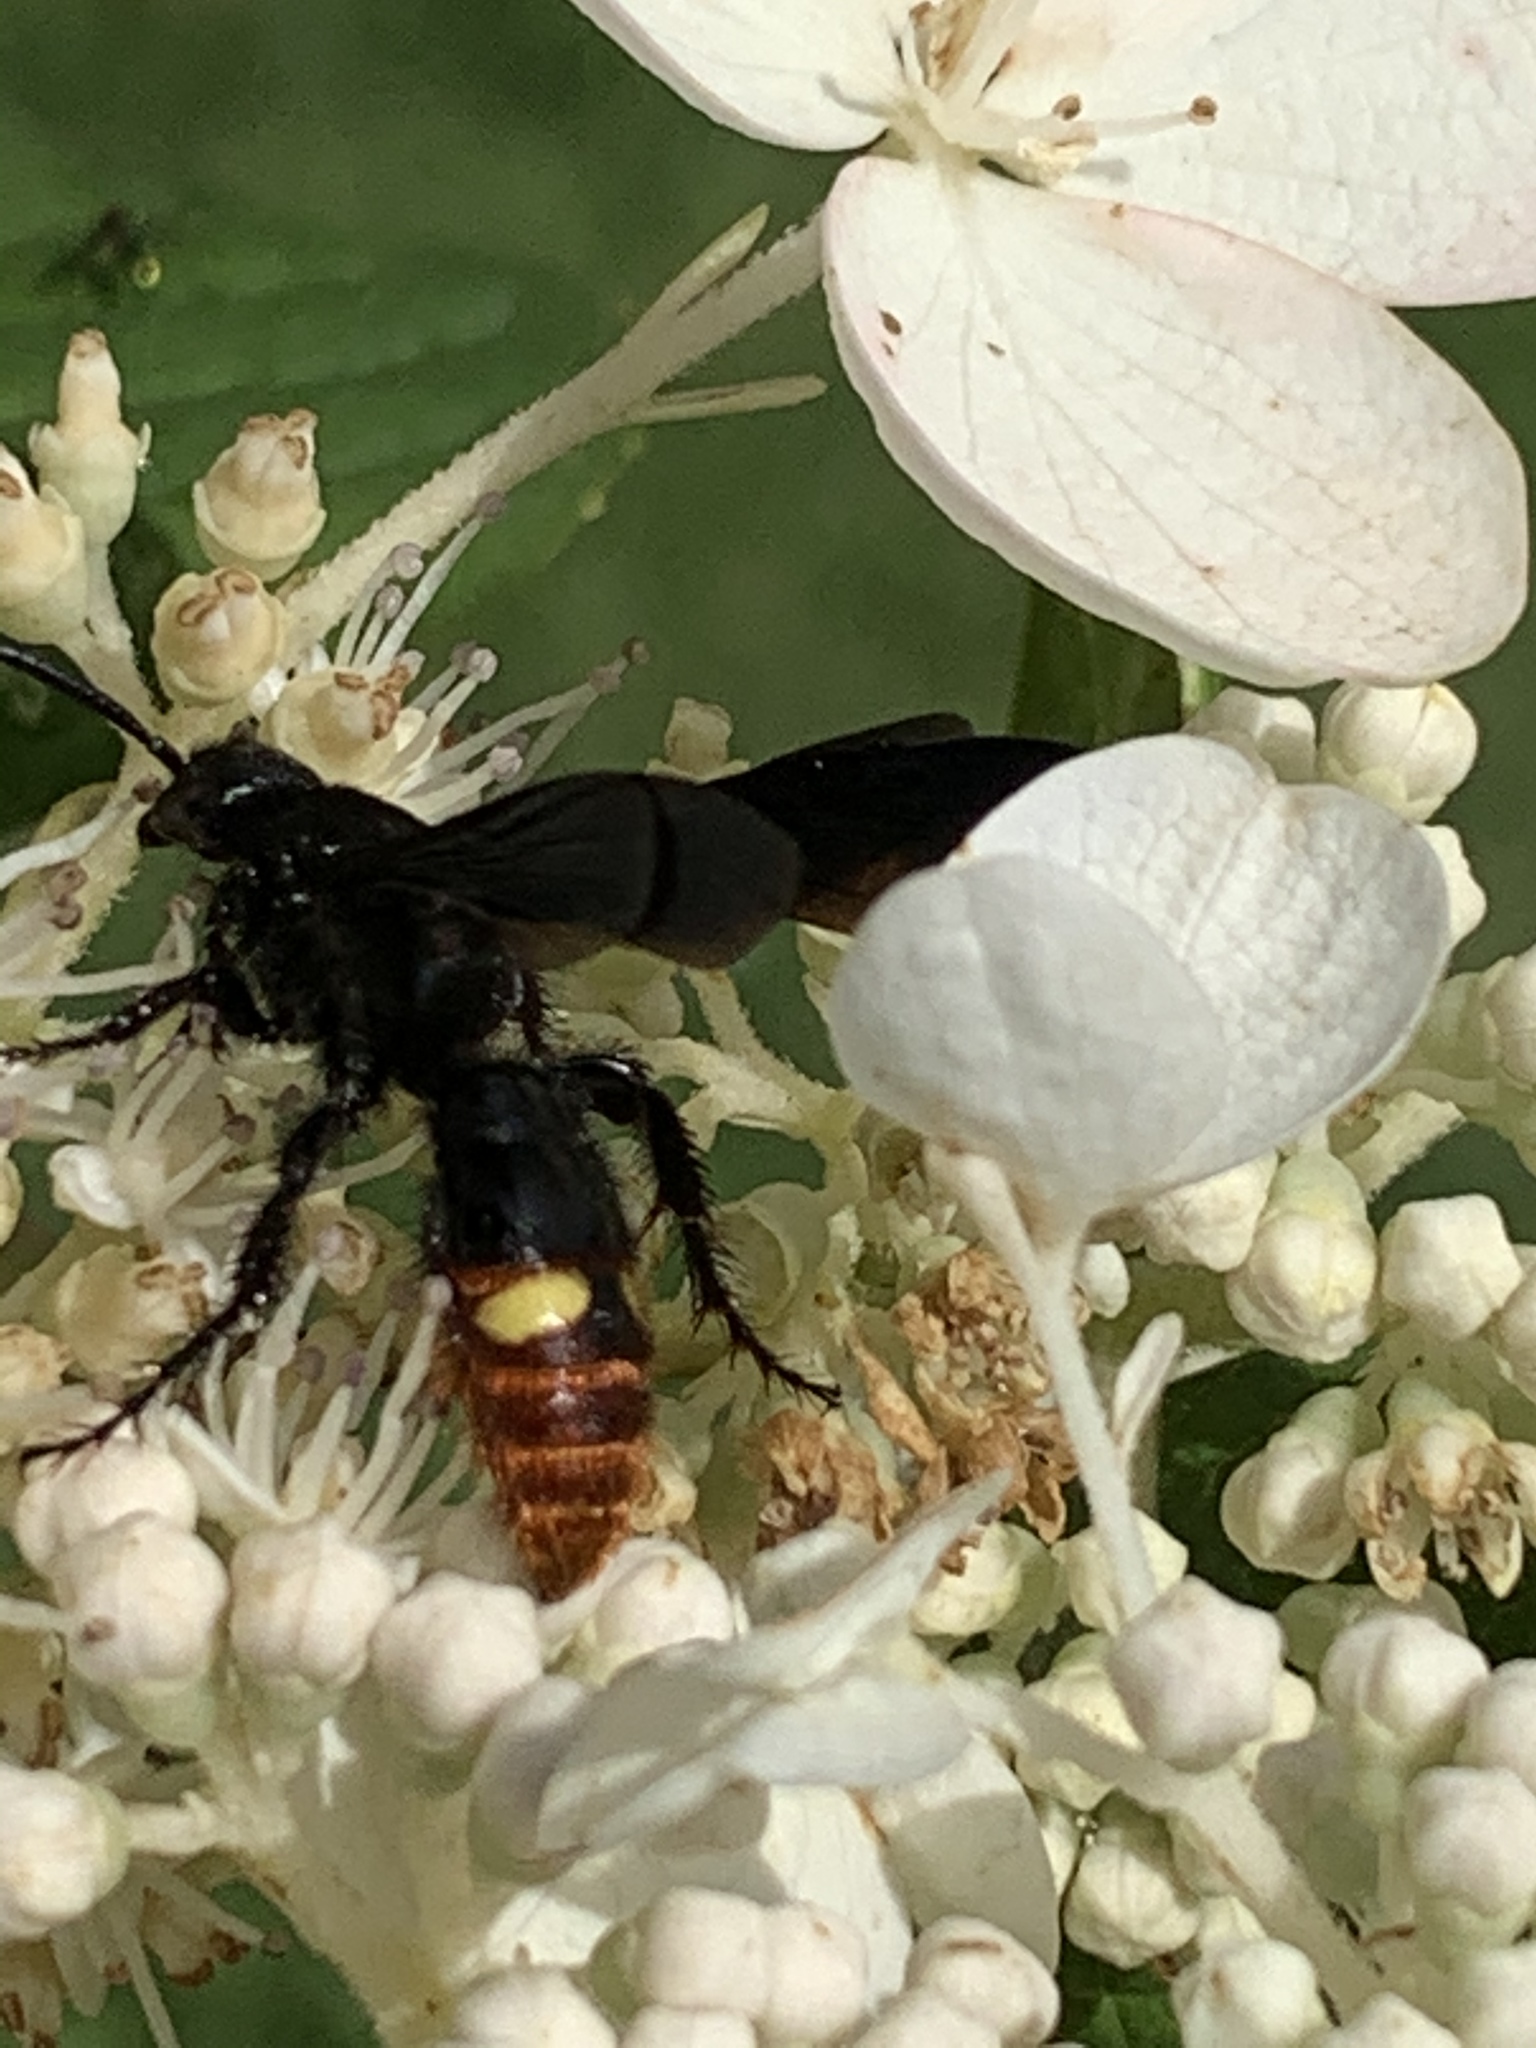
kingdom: Animalia
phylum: Arthropoda
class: Insecta
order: Hymenoptera
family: Scoliidae
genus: Scolia
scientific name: Scolia dubia
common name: Blue-winged scoliid wasp
